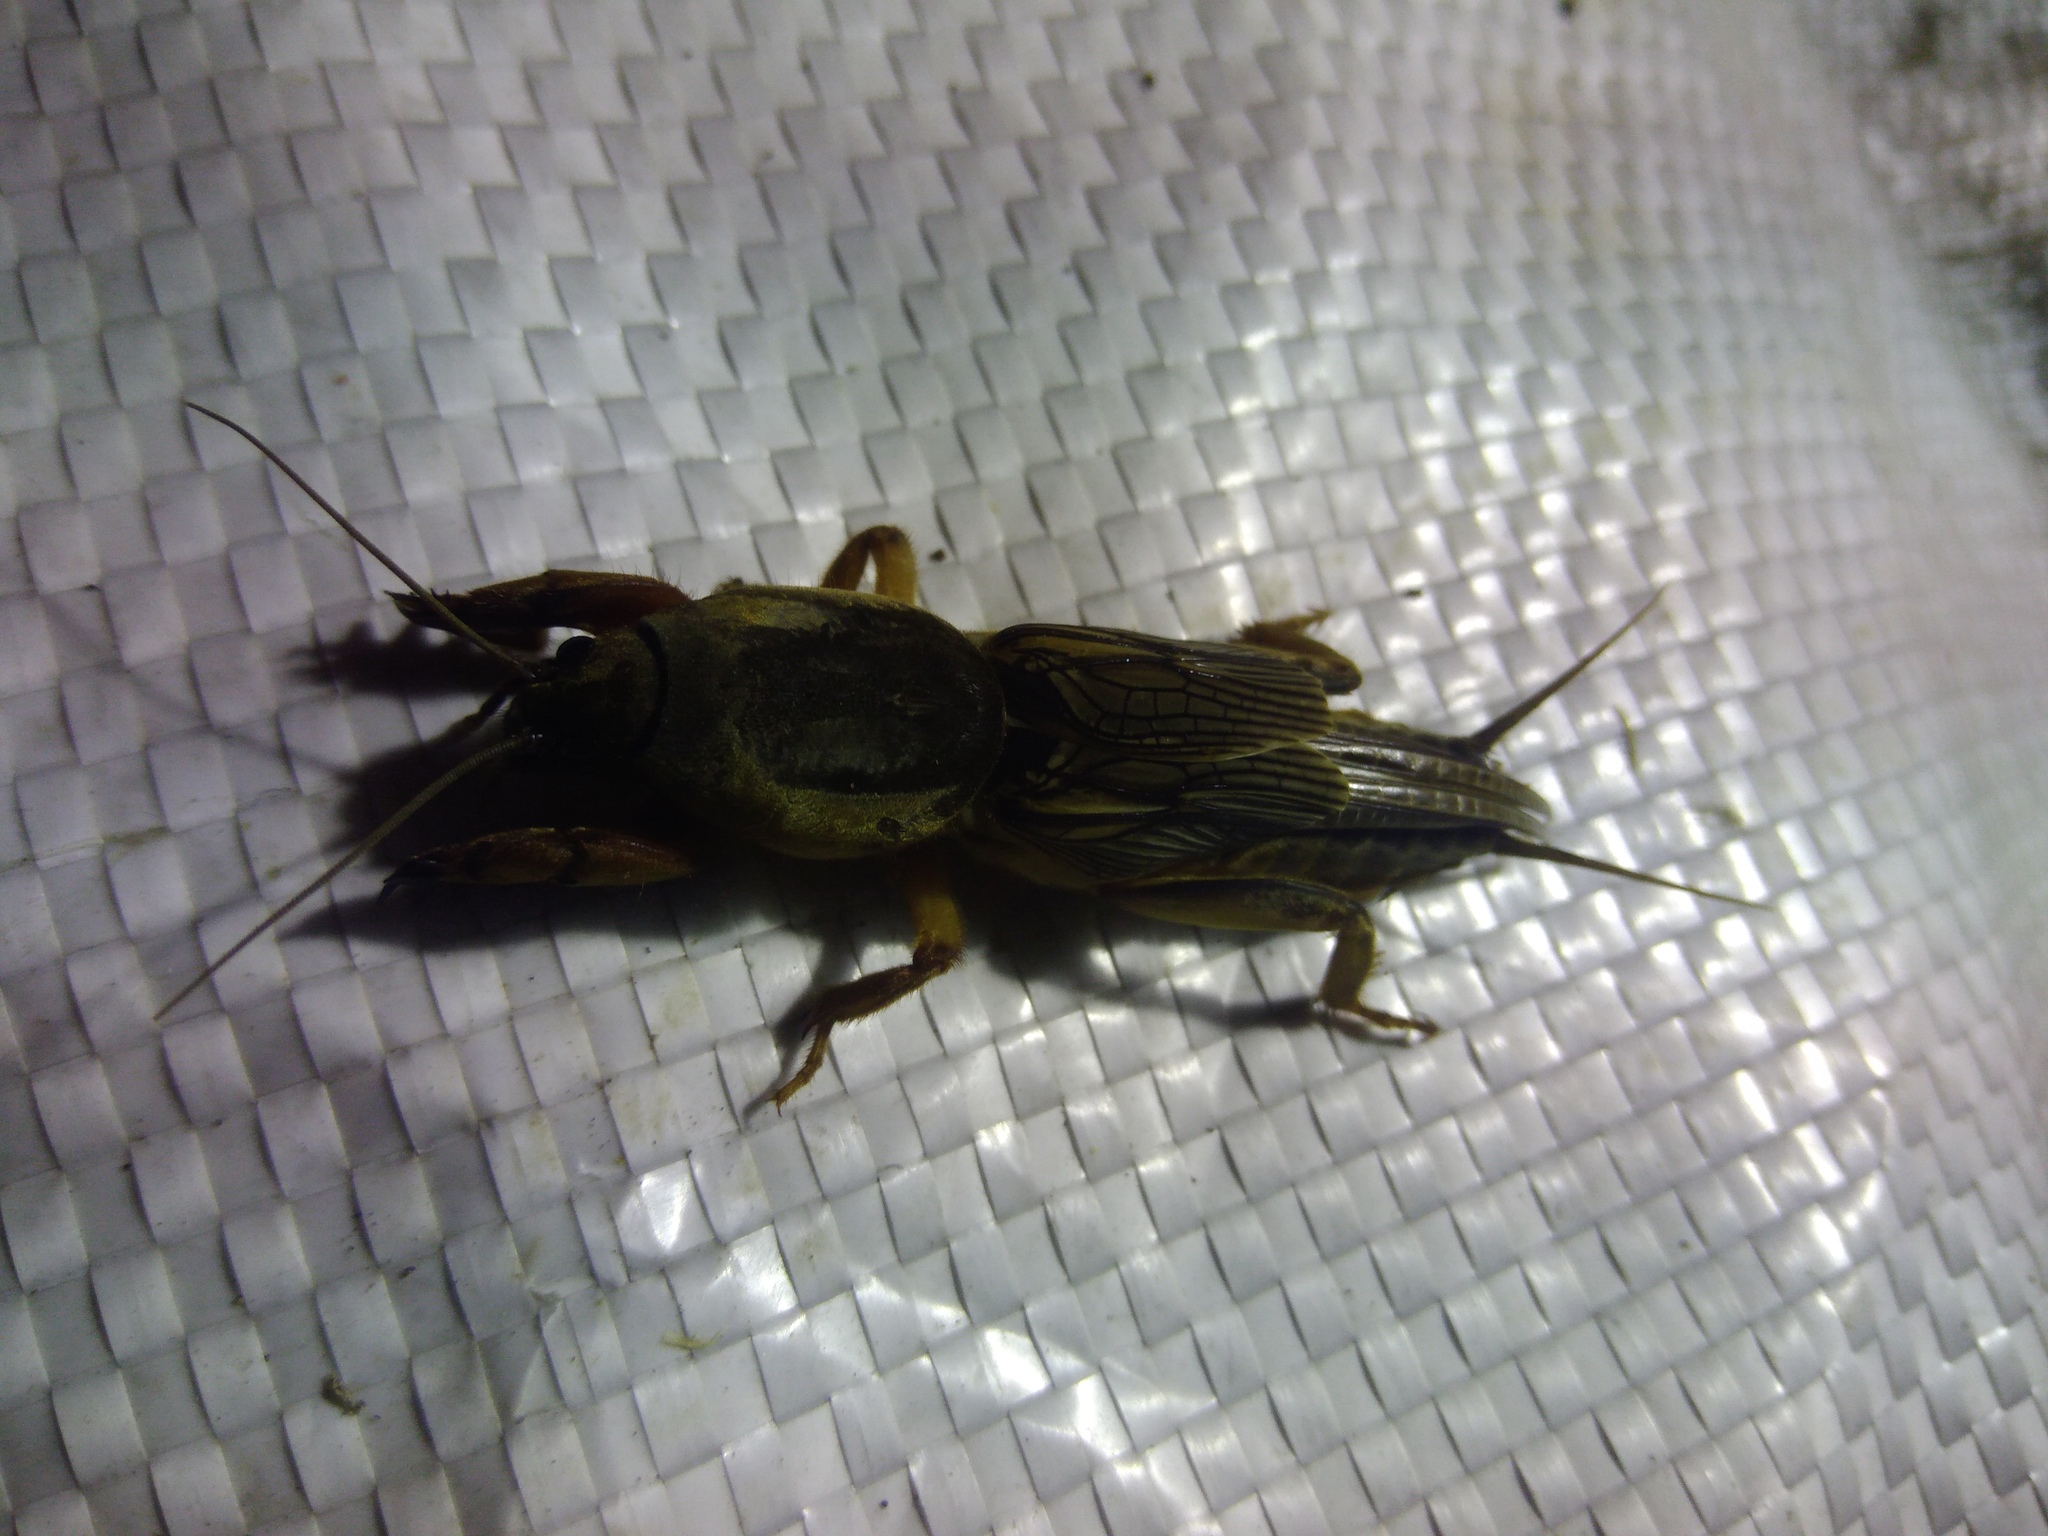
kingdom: Animalia
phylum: Arthropoda
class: Insecta
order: Orthoptera
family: Gryllotalpidae
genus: Gryllotalpa
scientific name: Gryllotalpa gryllotalpa
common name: European mole cricket
